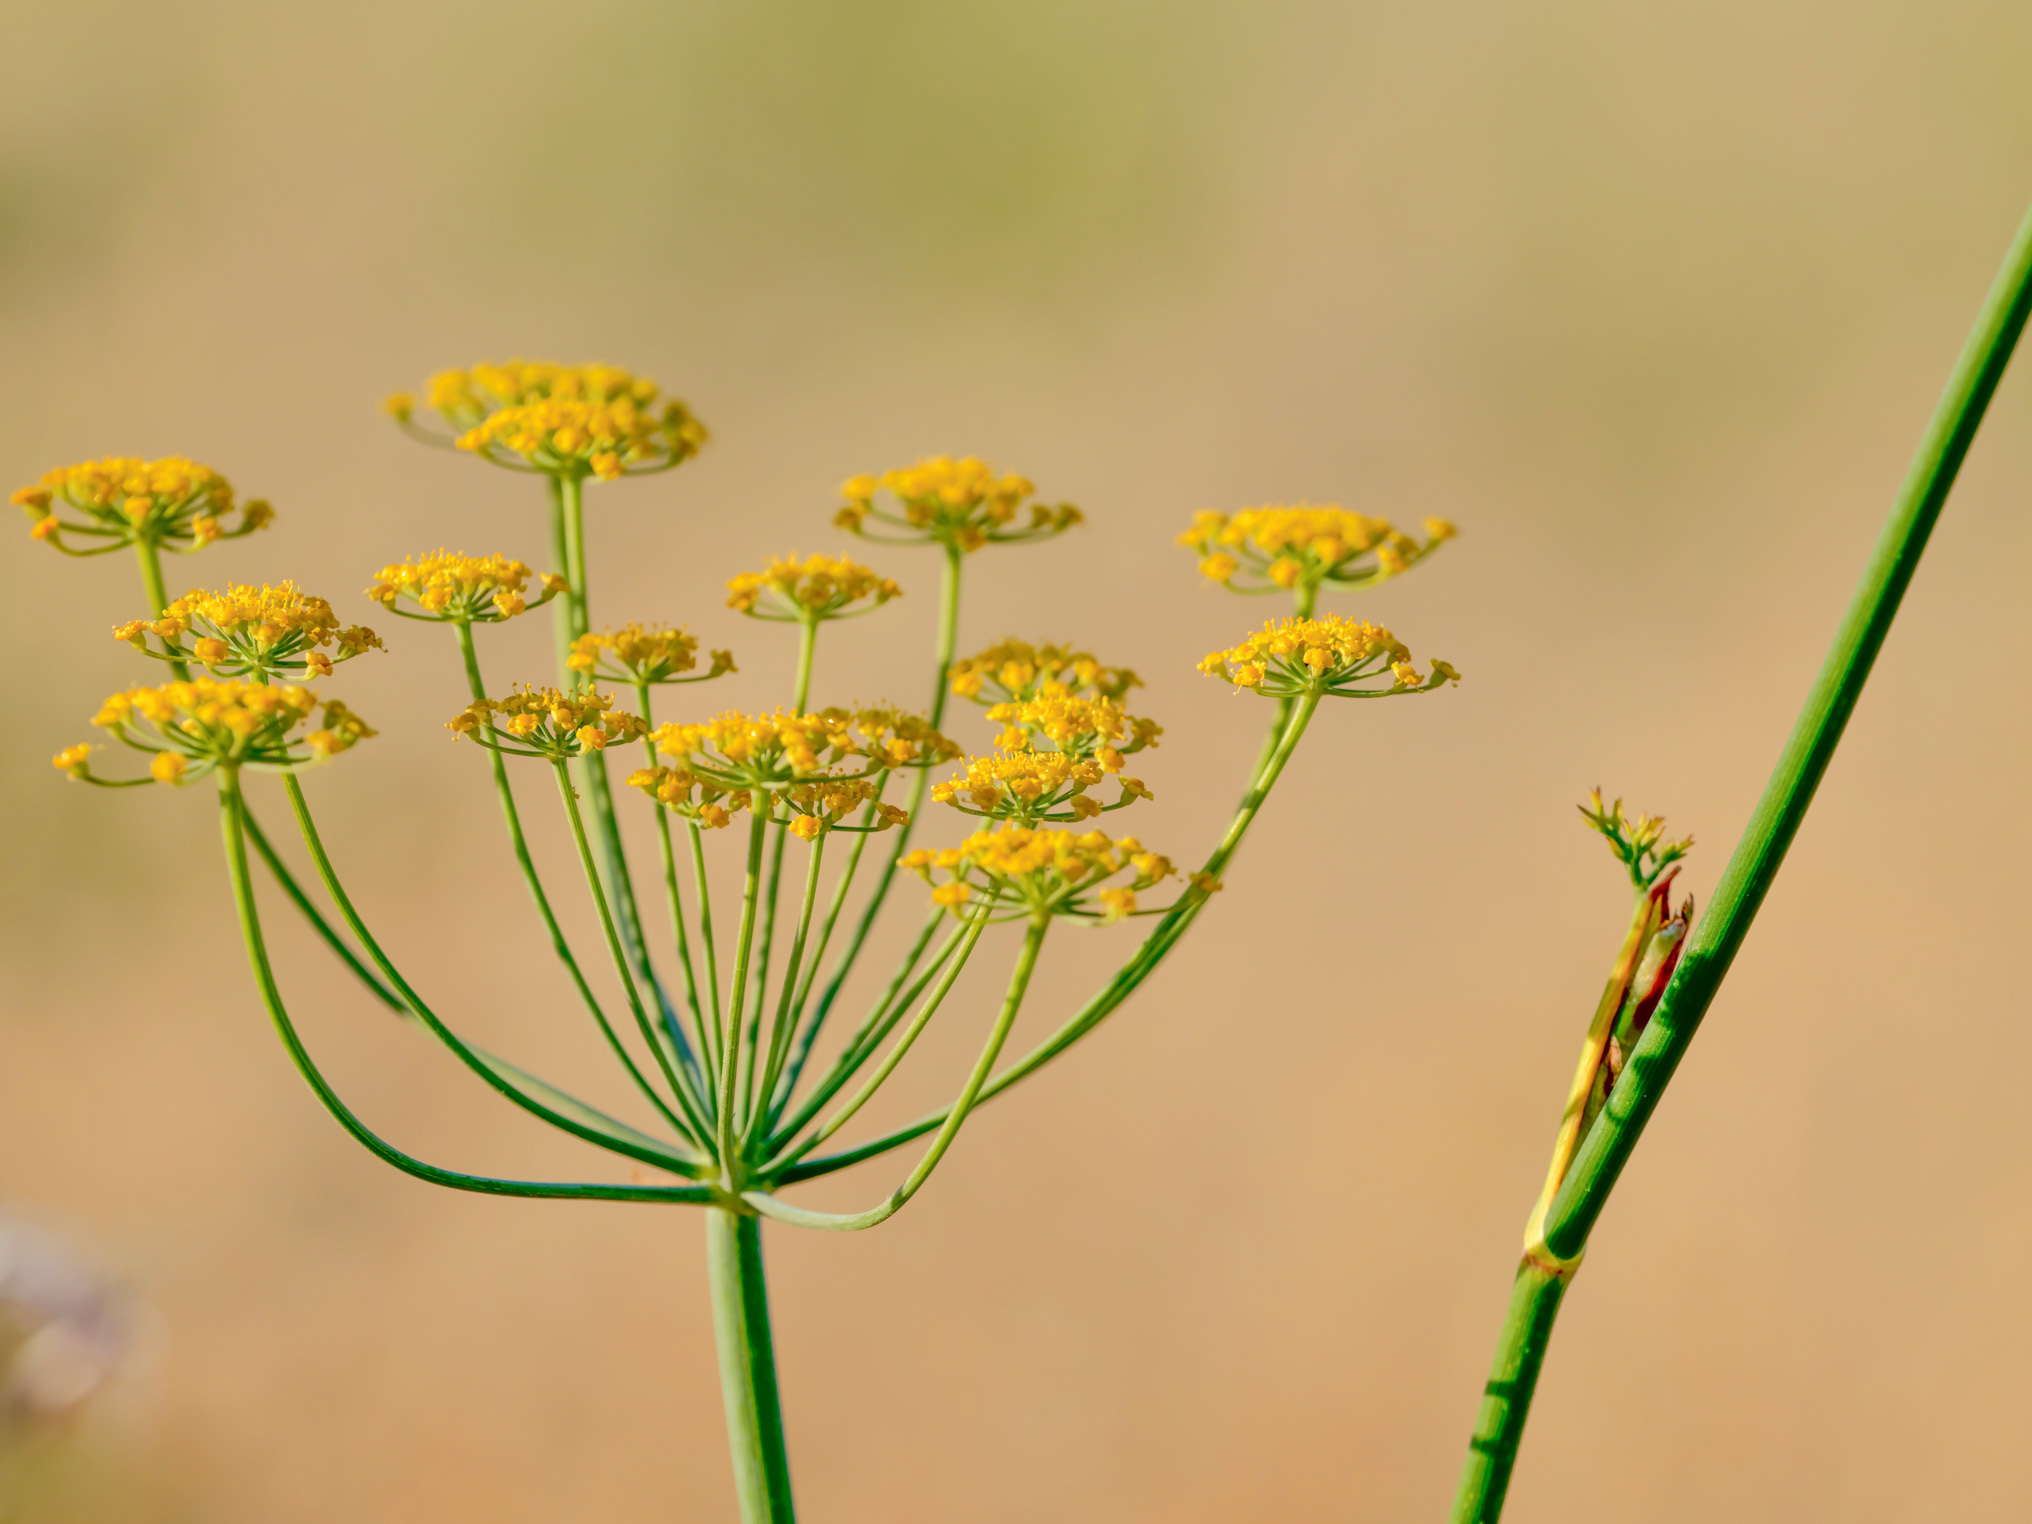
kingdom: Plantae
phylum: Tracheophyta
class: Magnoliopsida
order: Apiales
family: Apiaceae
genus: Foeniculum
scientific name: Foeniculum vulgare
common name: Fennel
